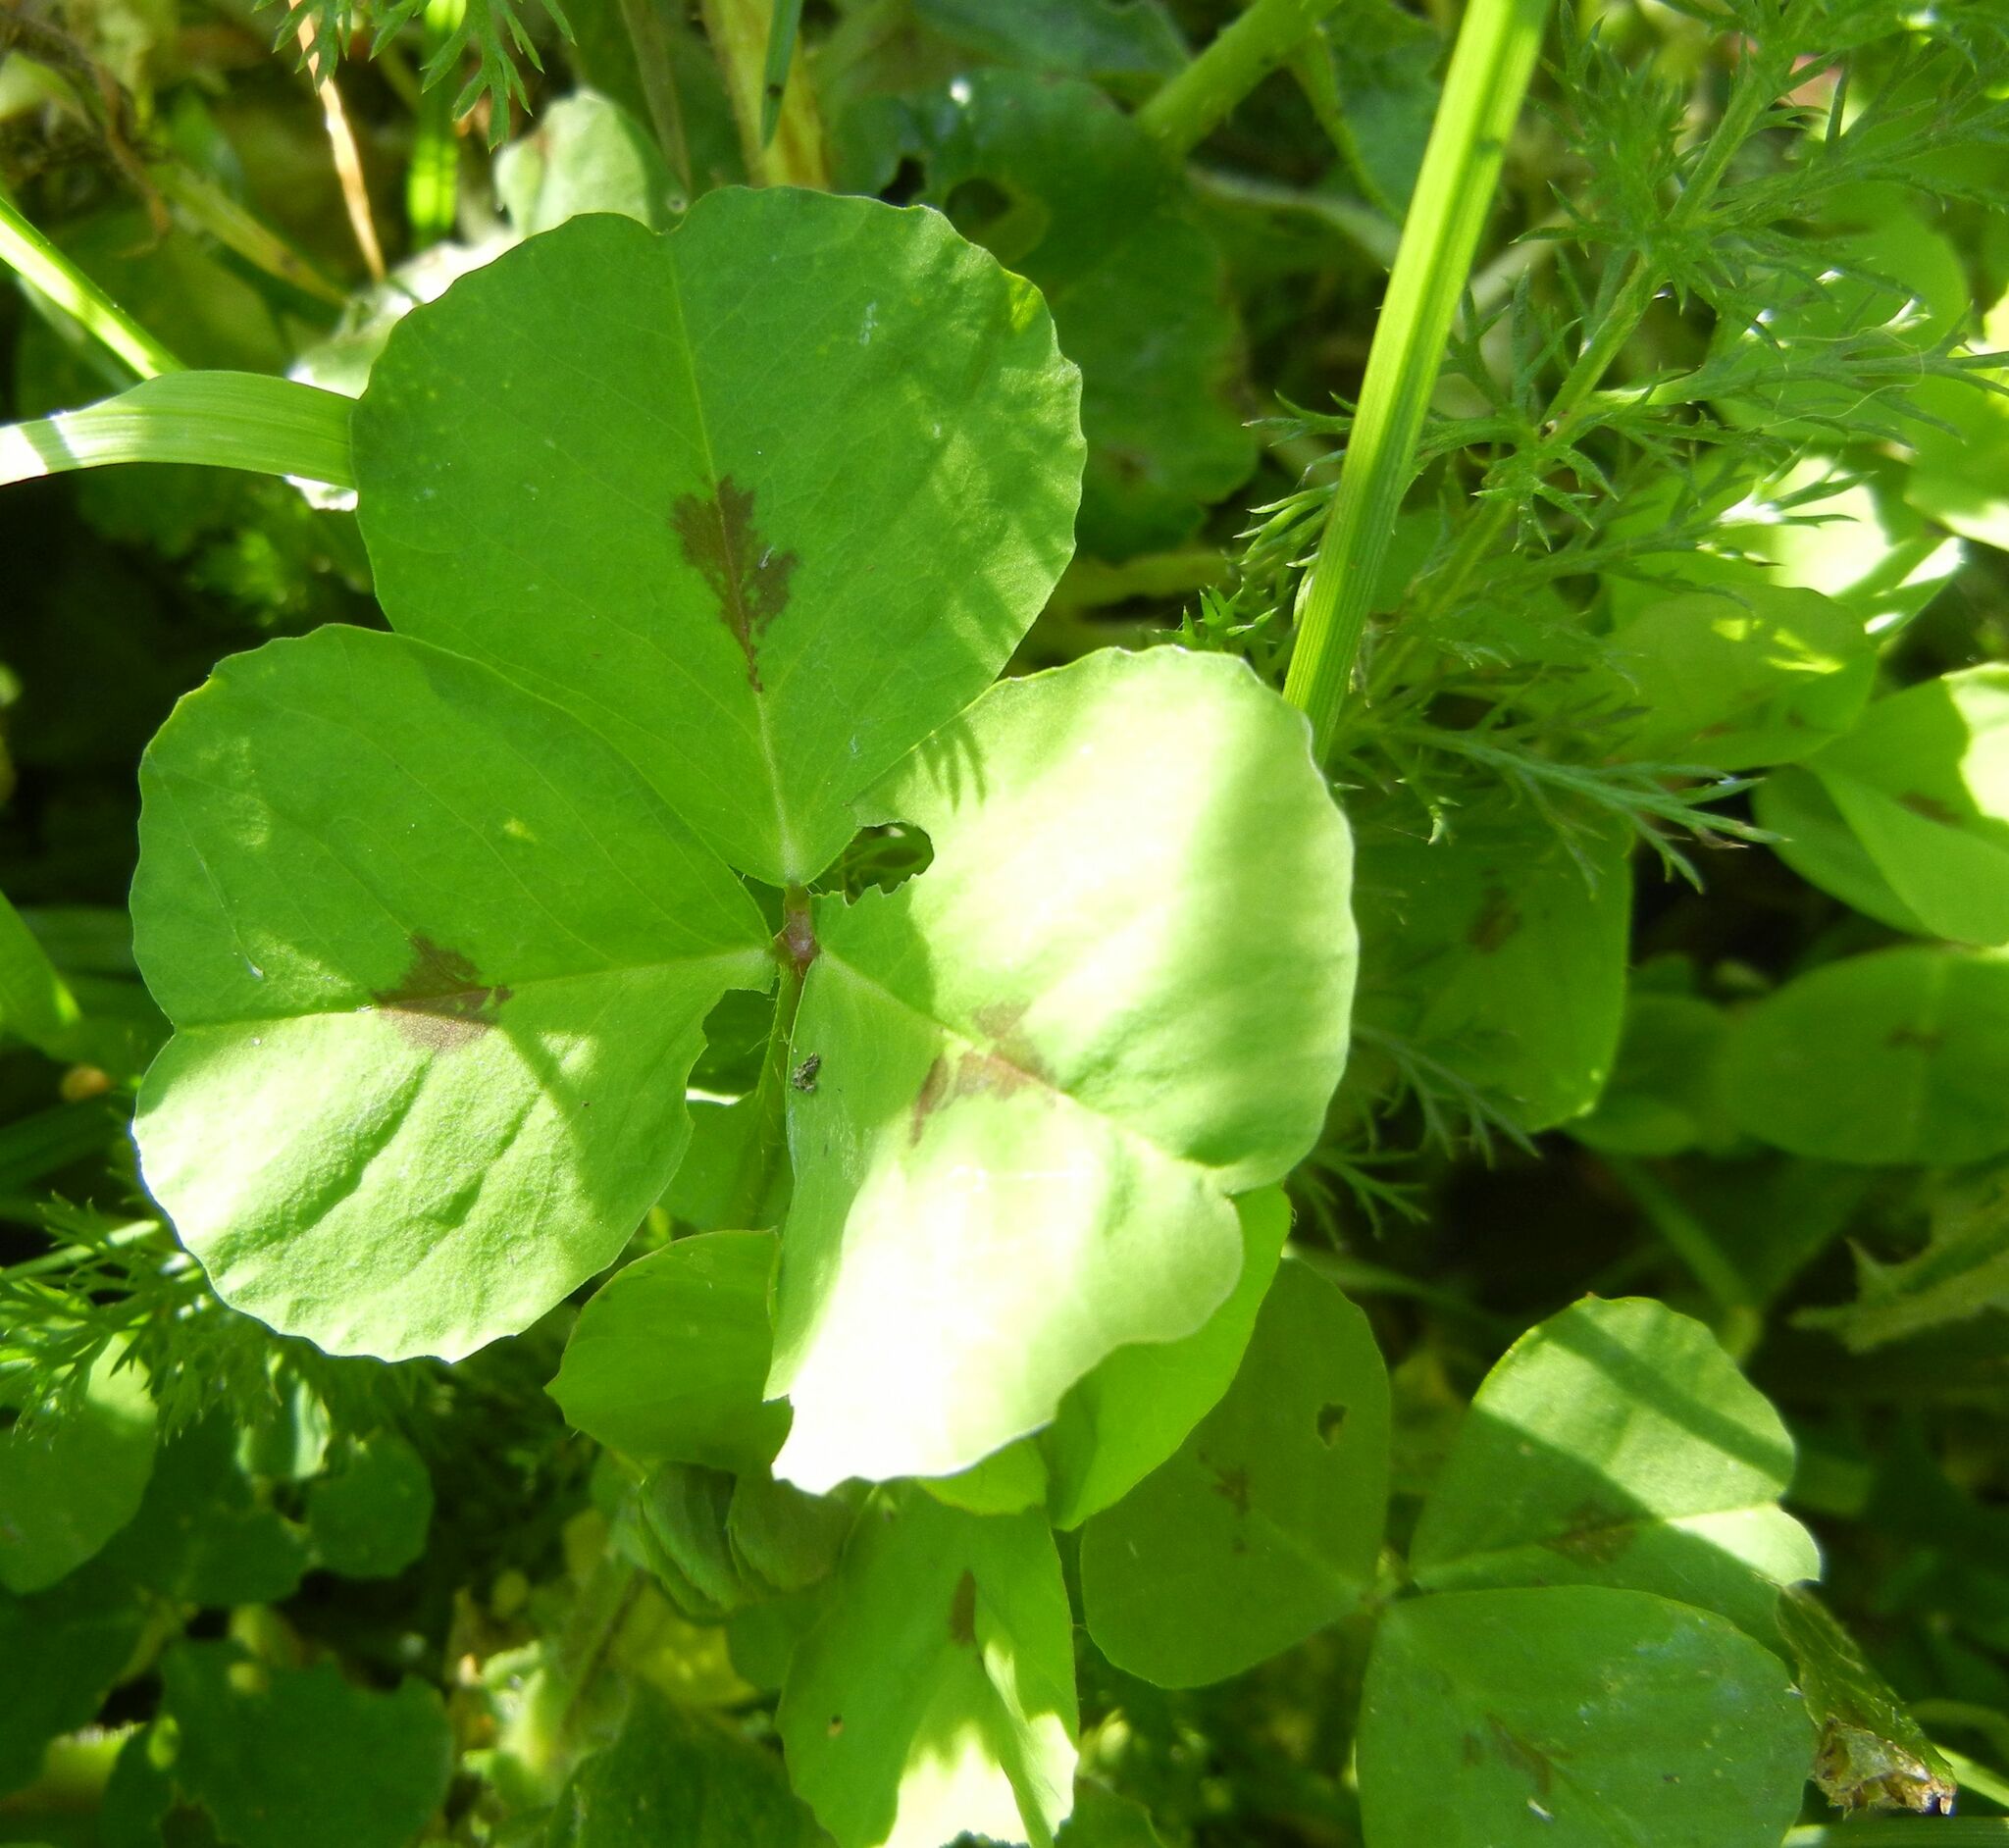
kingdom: Plantae
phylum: Tracheophyta
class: Magnoliopsida
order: Fabales
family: Fabaceae
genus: Medicago
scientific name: Medicago arabica
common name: Spotted medick
